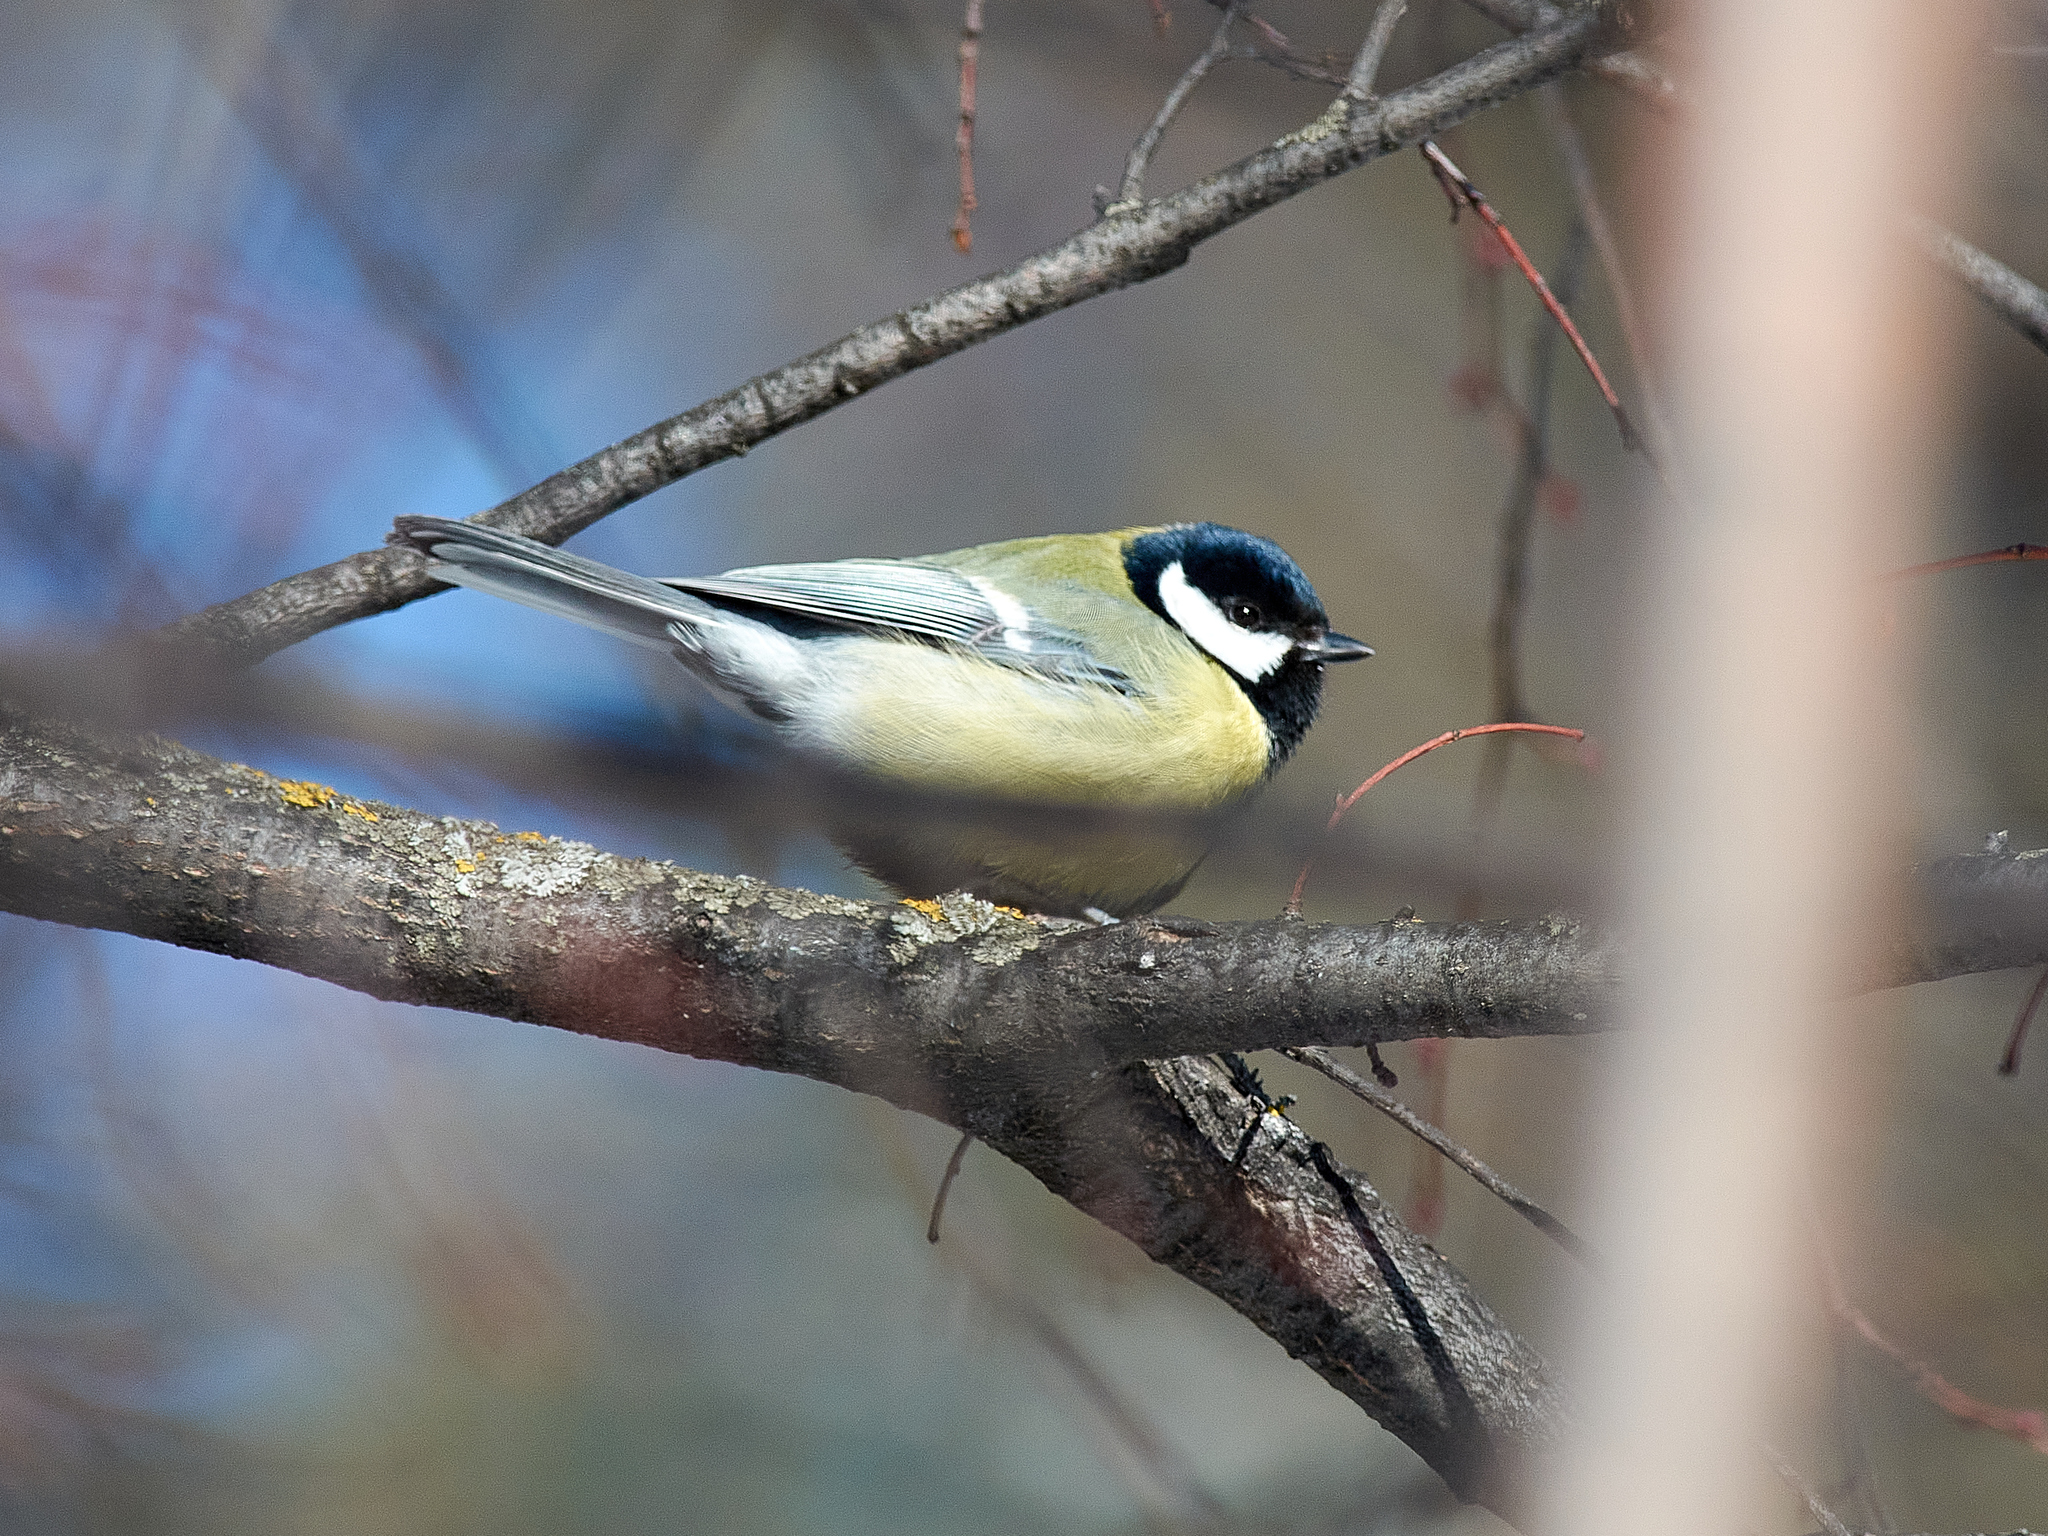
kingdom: Animalia
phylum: Chordata
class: Aves
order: Passeriformes
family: Paridae
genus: Parus
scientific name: Parus major
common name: Great tit
